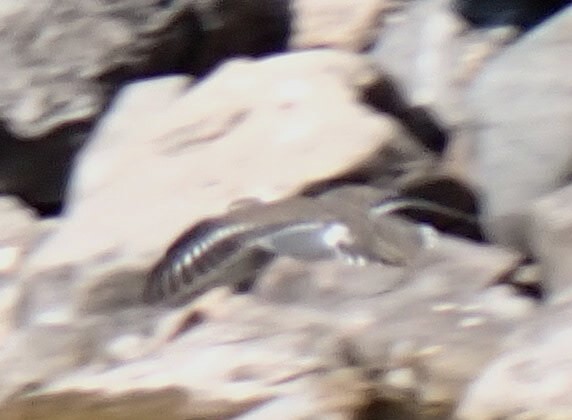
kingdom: Animalia
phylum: Chordata
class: Aves
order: Charadriiformes
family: Scolopacidae
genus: Actitis
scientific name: Actitis macularius
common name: Spotted sandpiper
